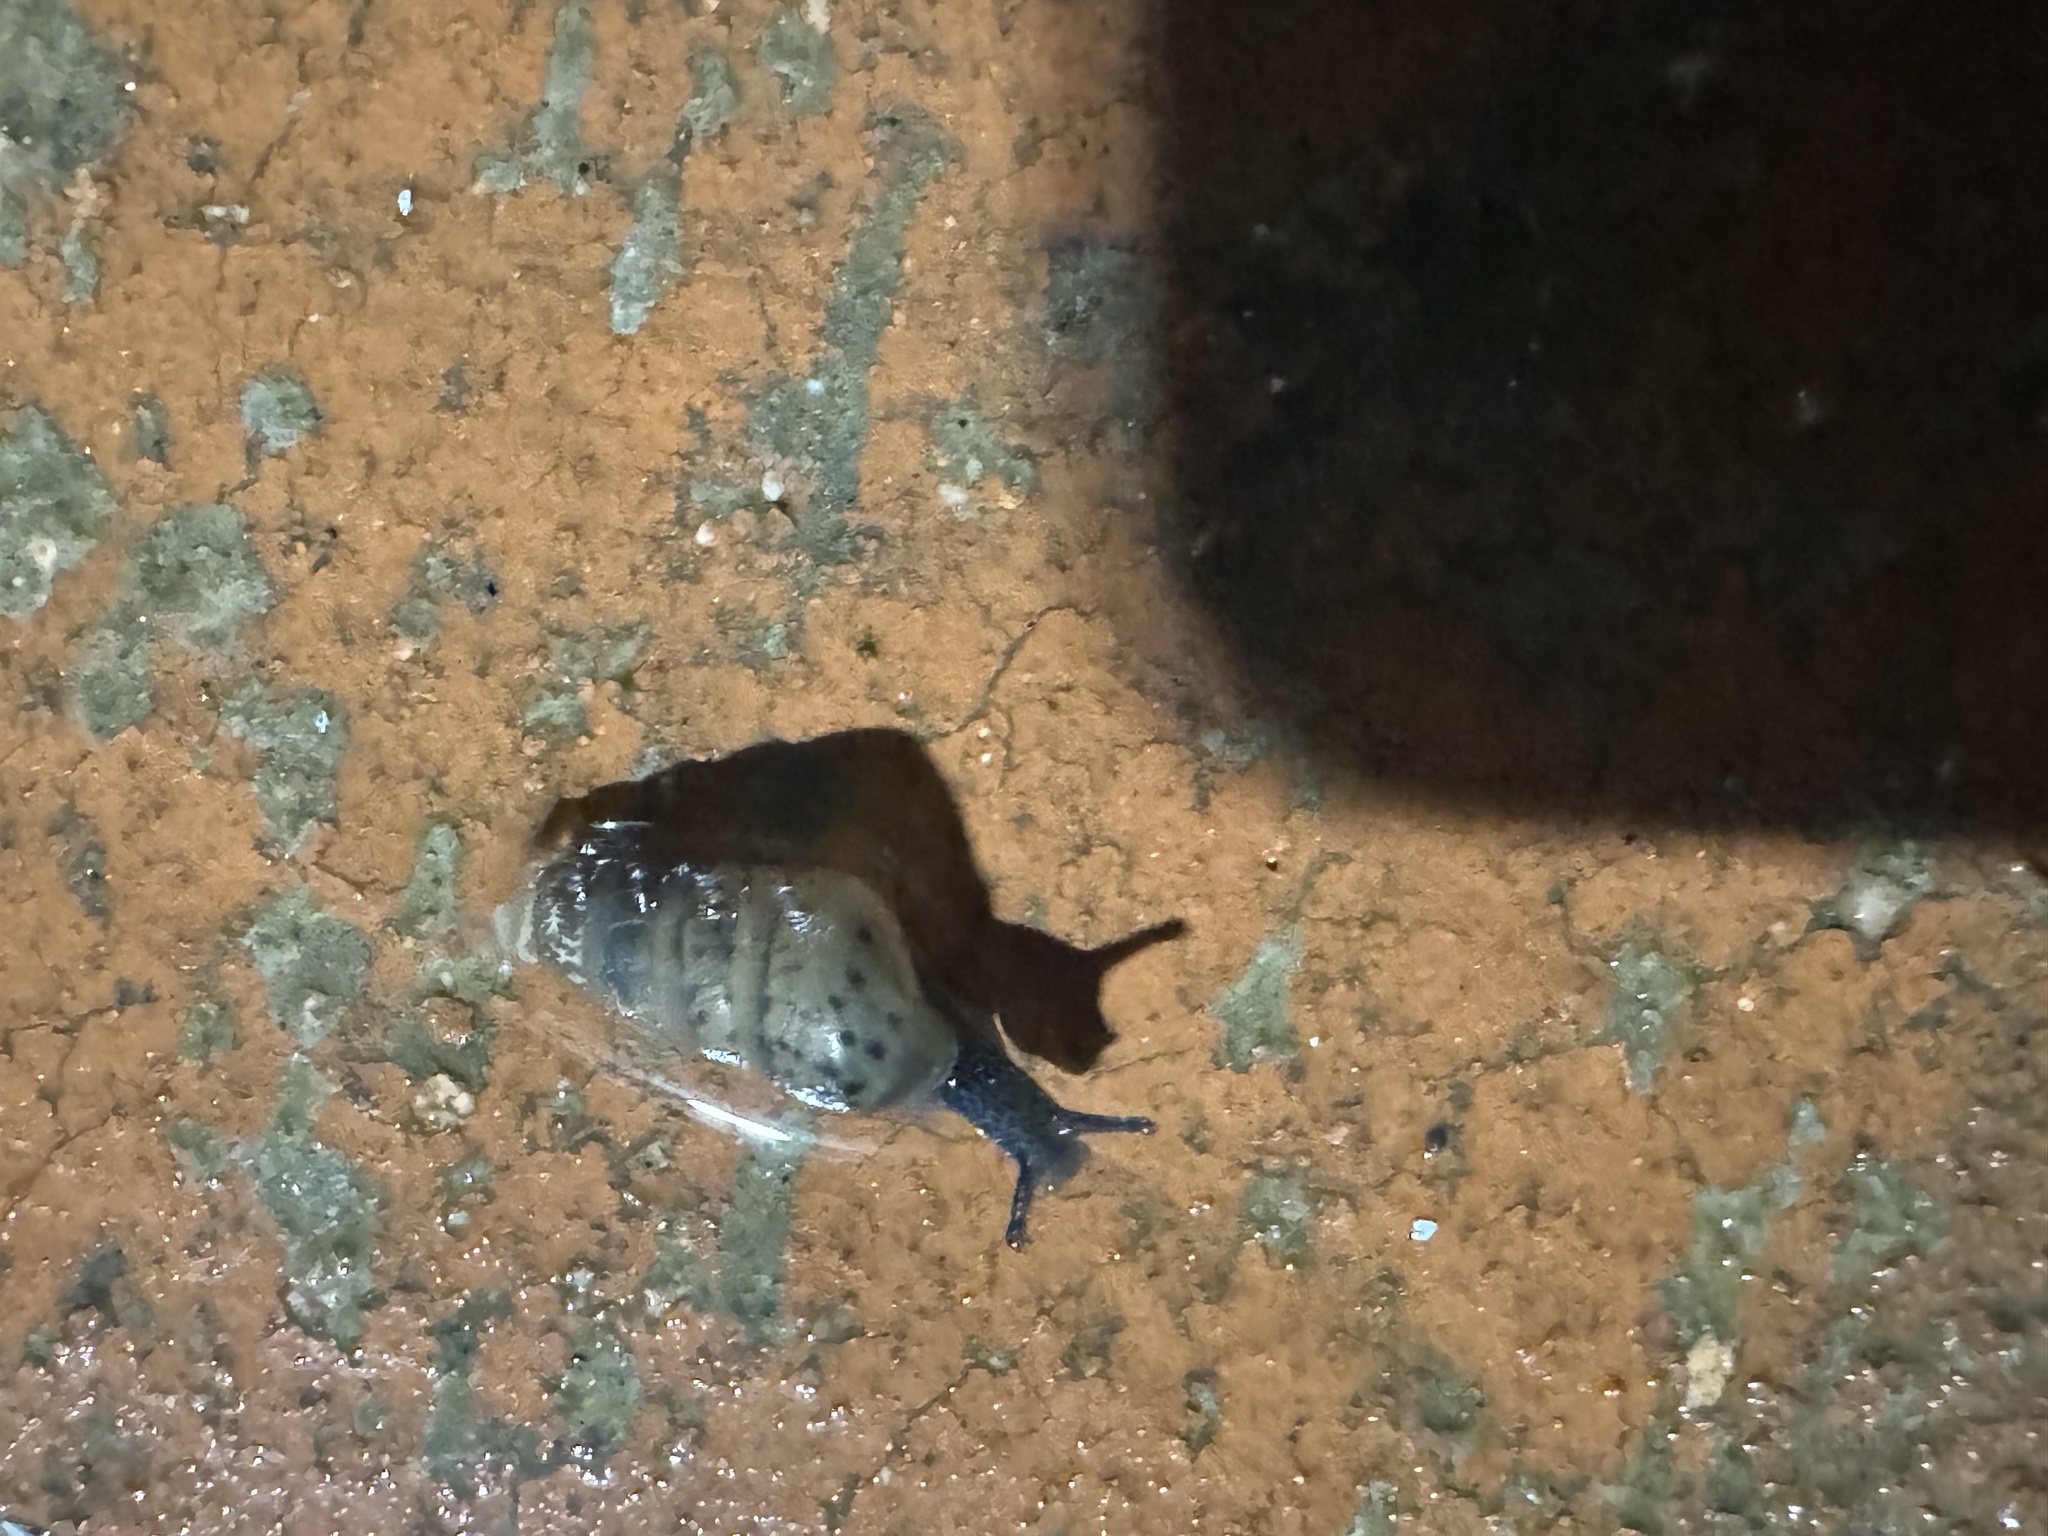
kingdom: Animalia
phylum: Mollusca
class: Gastropoda
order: Stylommatophora
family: Achatinidae
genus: Rumina
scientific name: Rumina decollata
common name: Decollate snail
